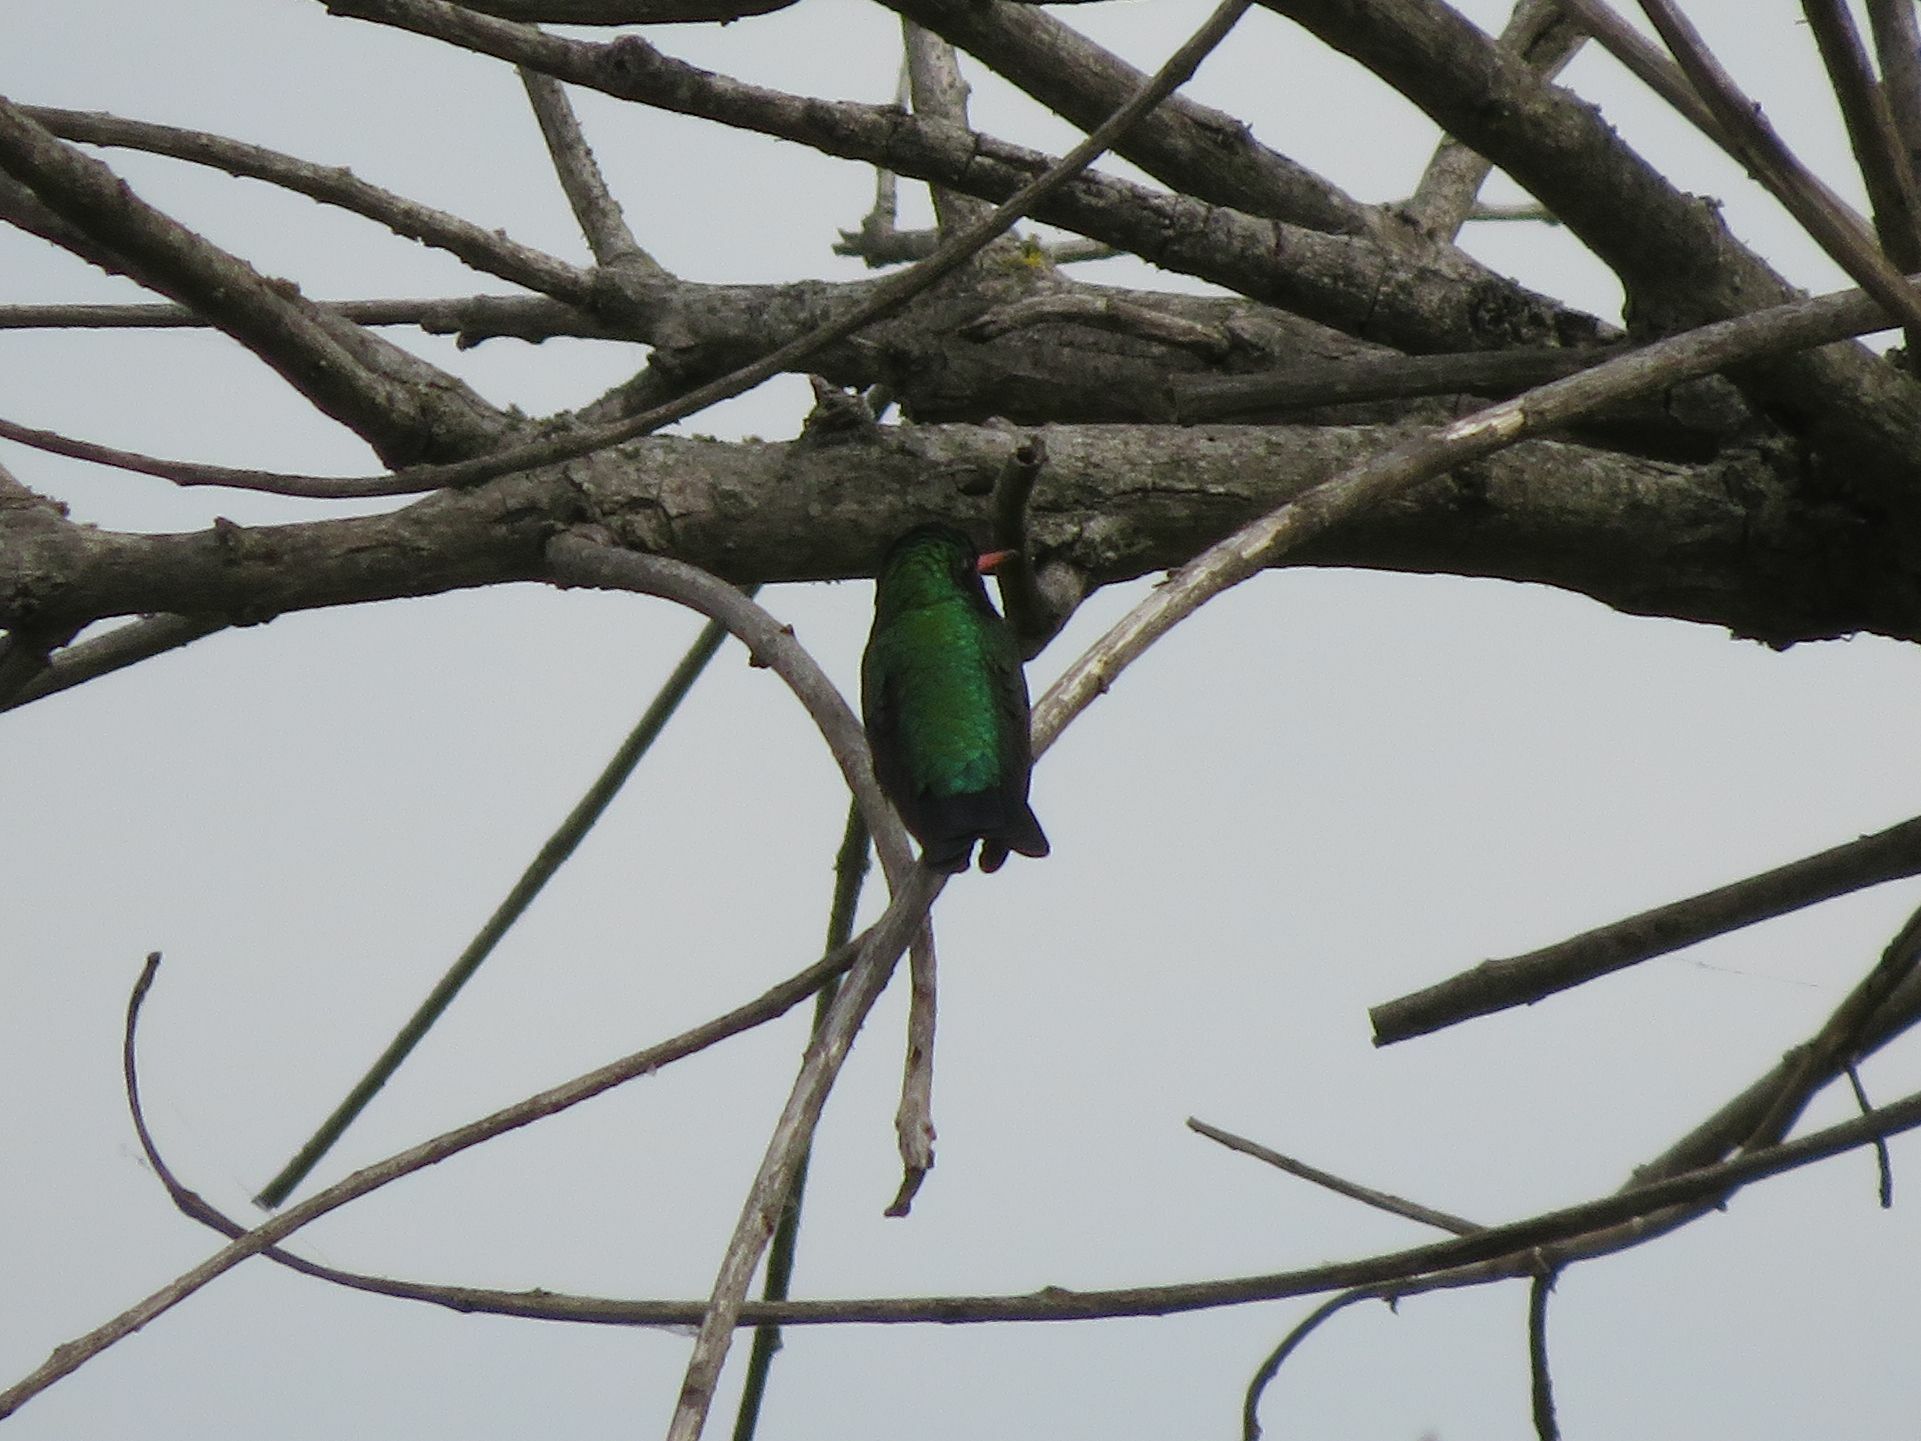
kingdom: Animalia
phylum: Chordata
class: Aves
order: Apodiformes
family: Trochilidae
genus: Chlorostilbon
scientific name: Chlorostilbon lucidus
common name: Glittering-bellied emerald
